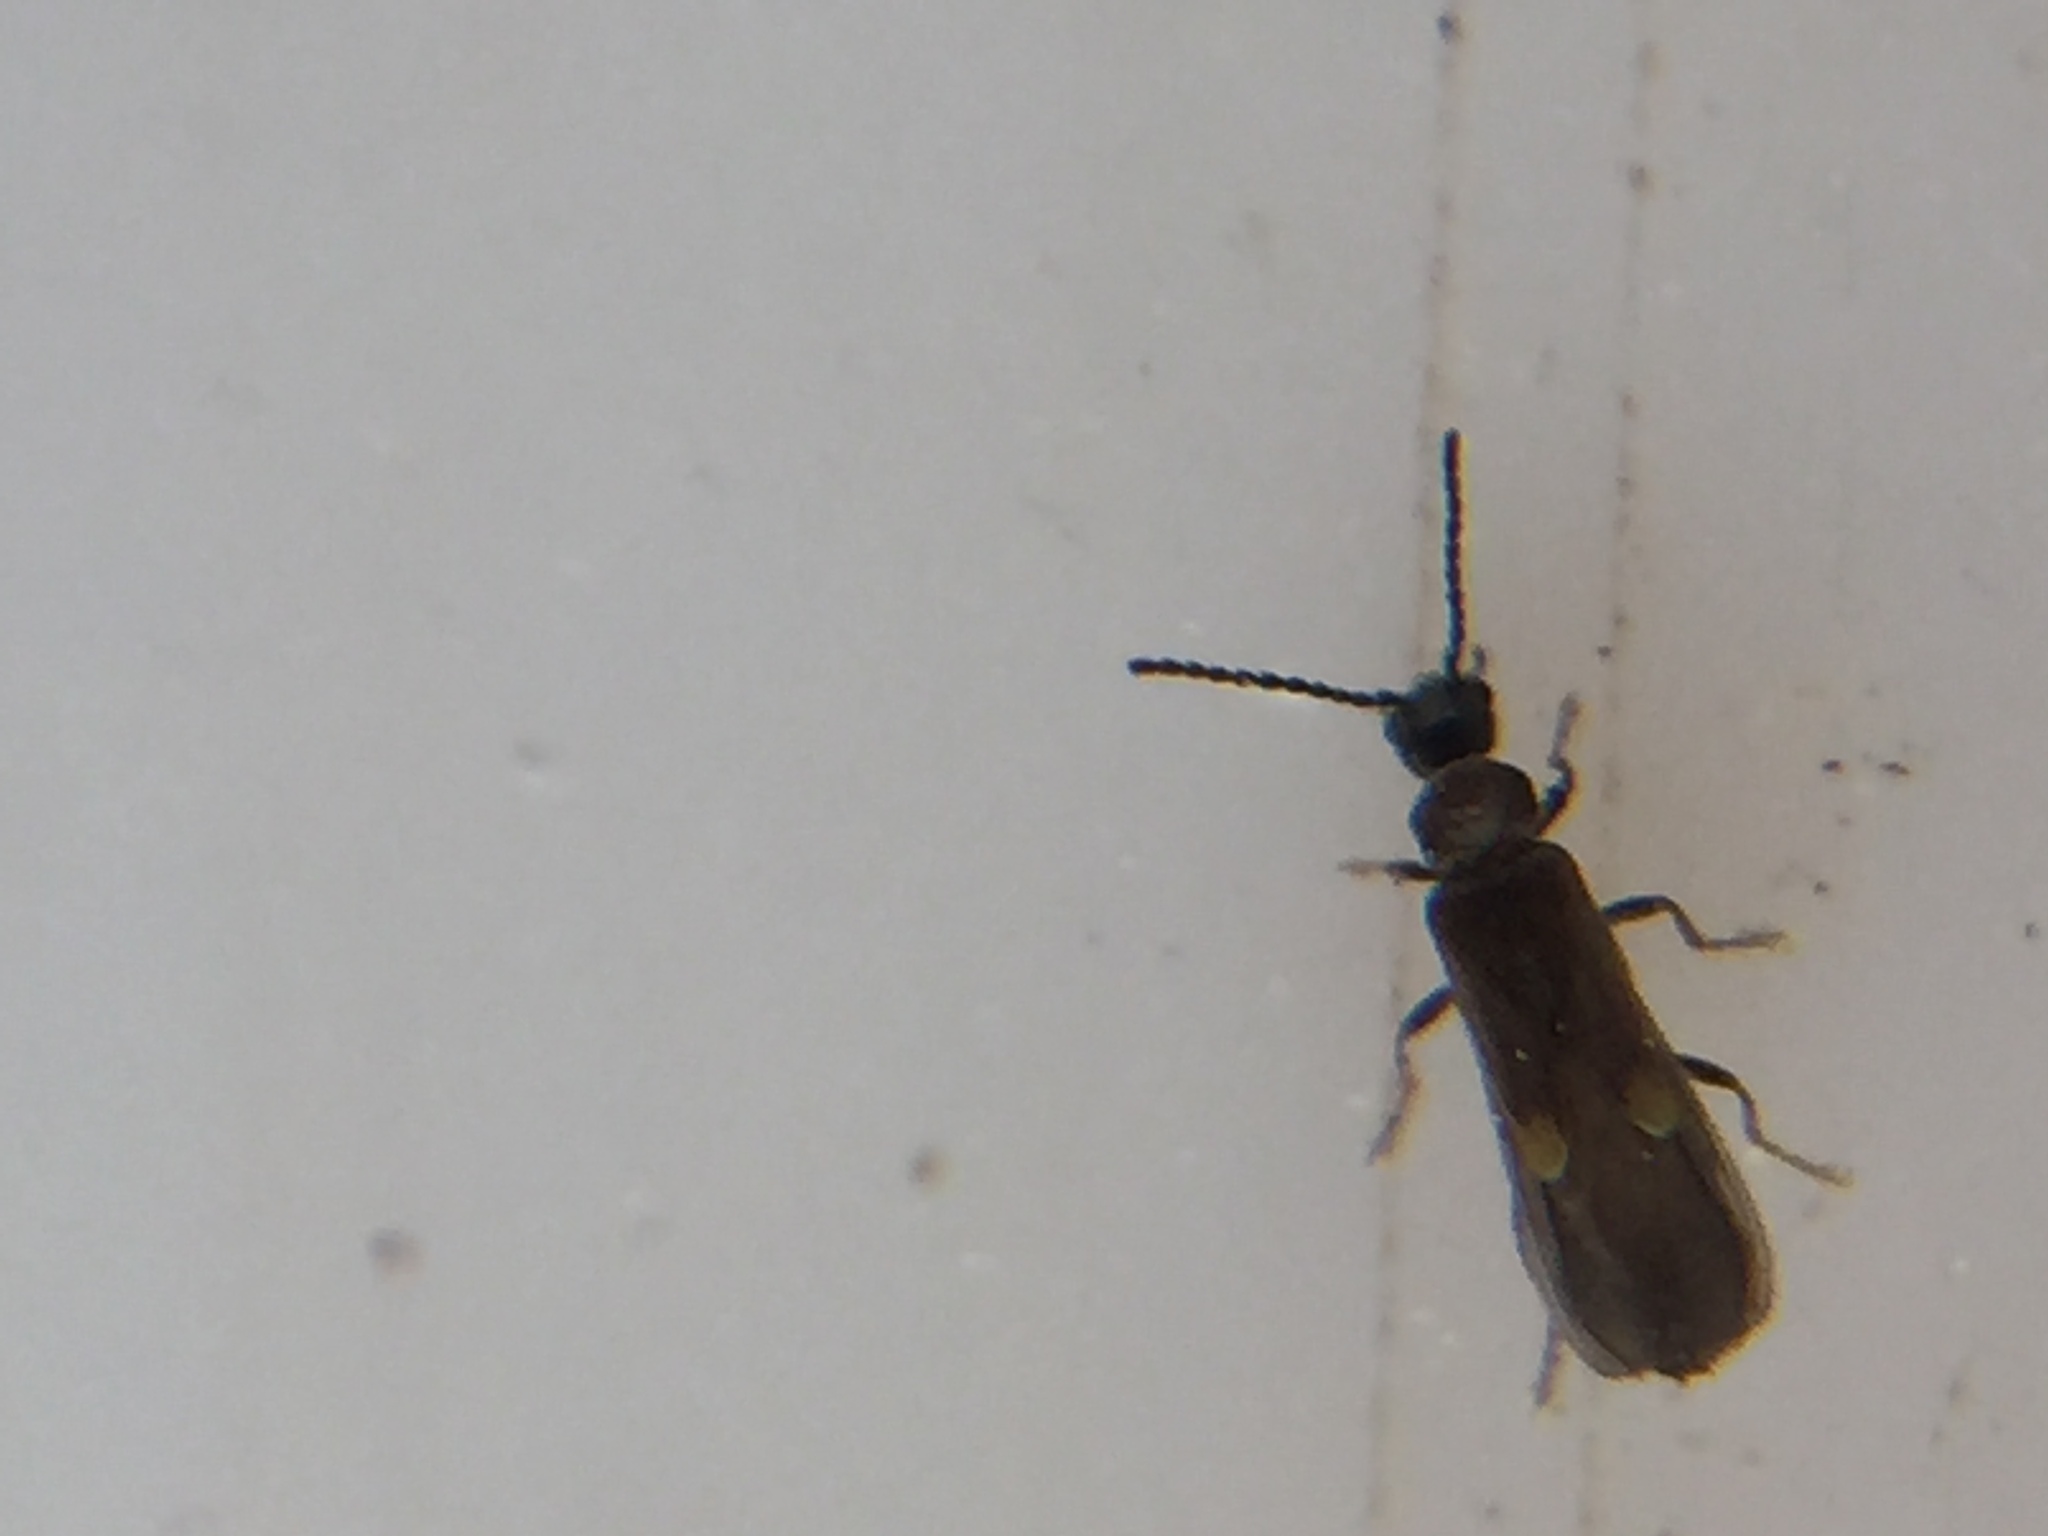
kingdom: Animalia
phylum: Arthropoda
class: Insecta
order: Coleoptera
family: Cantharidae
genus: Malthodes
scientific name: Malthodes pumilus
